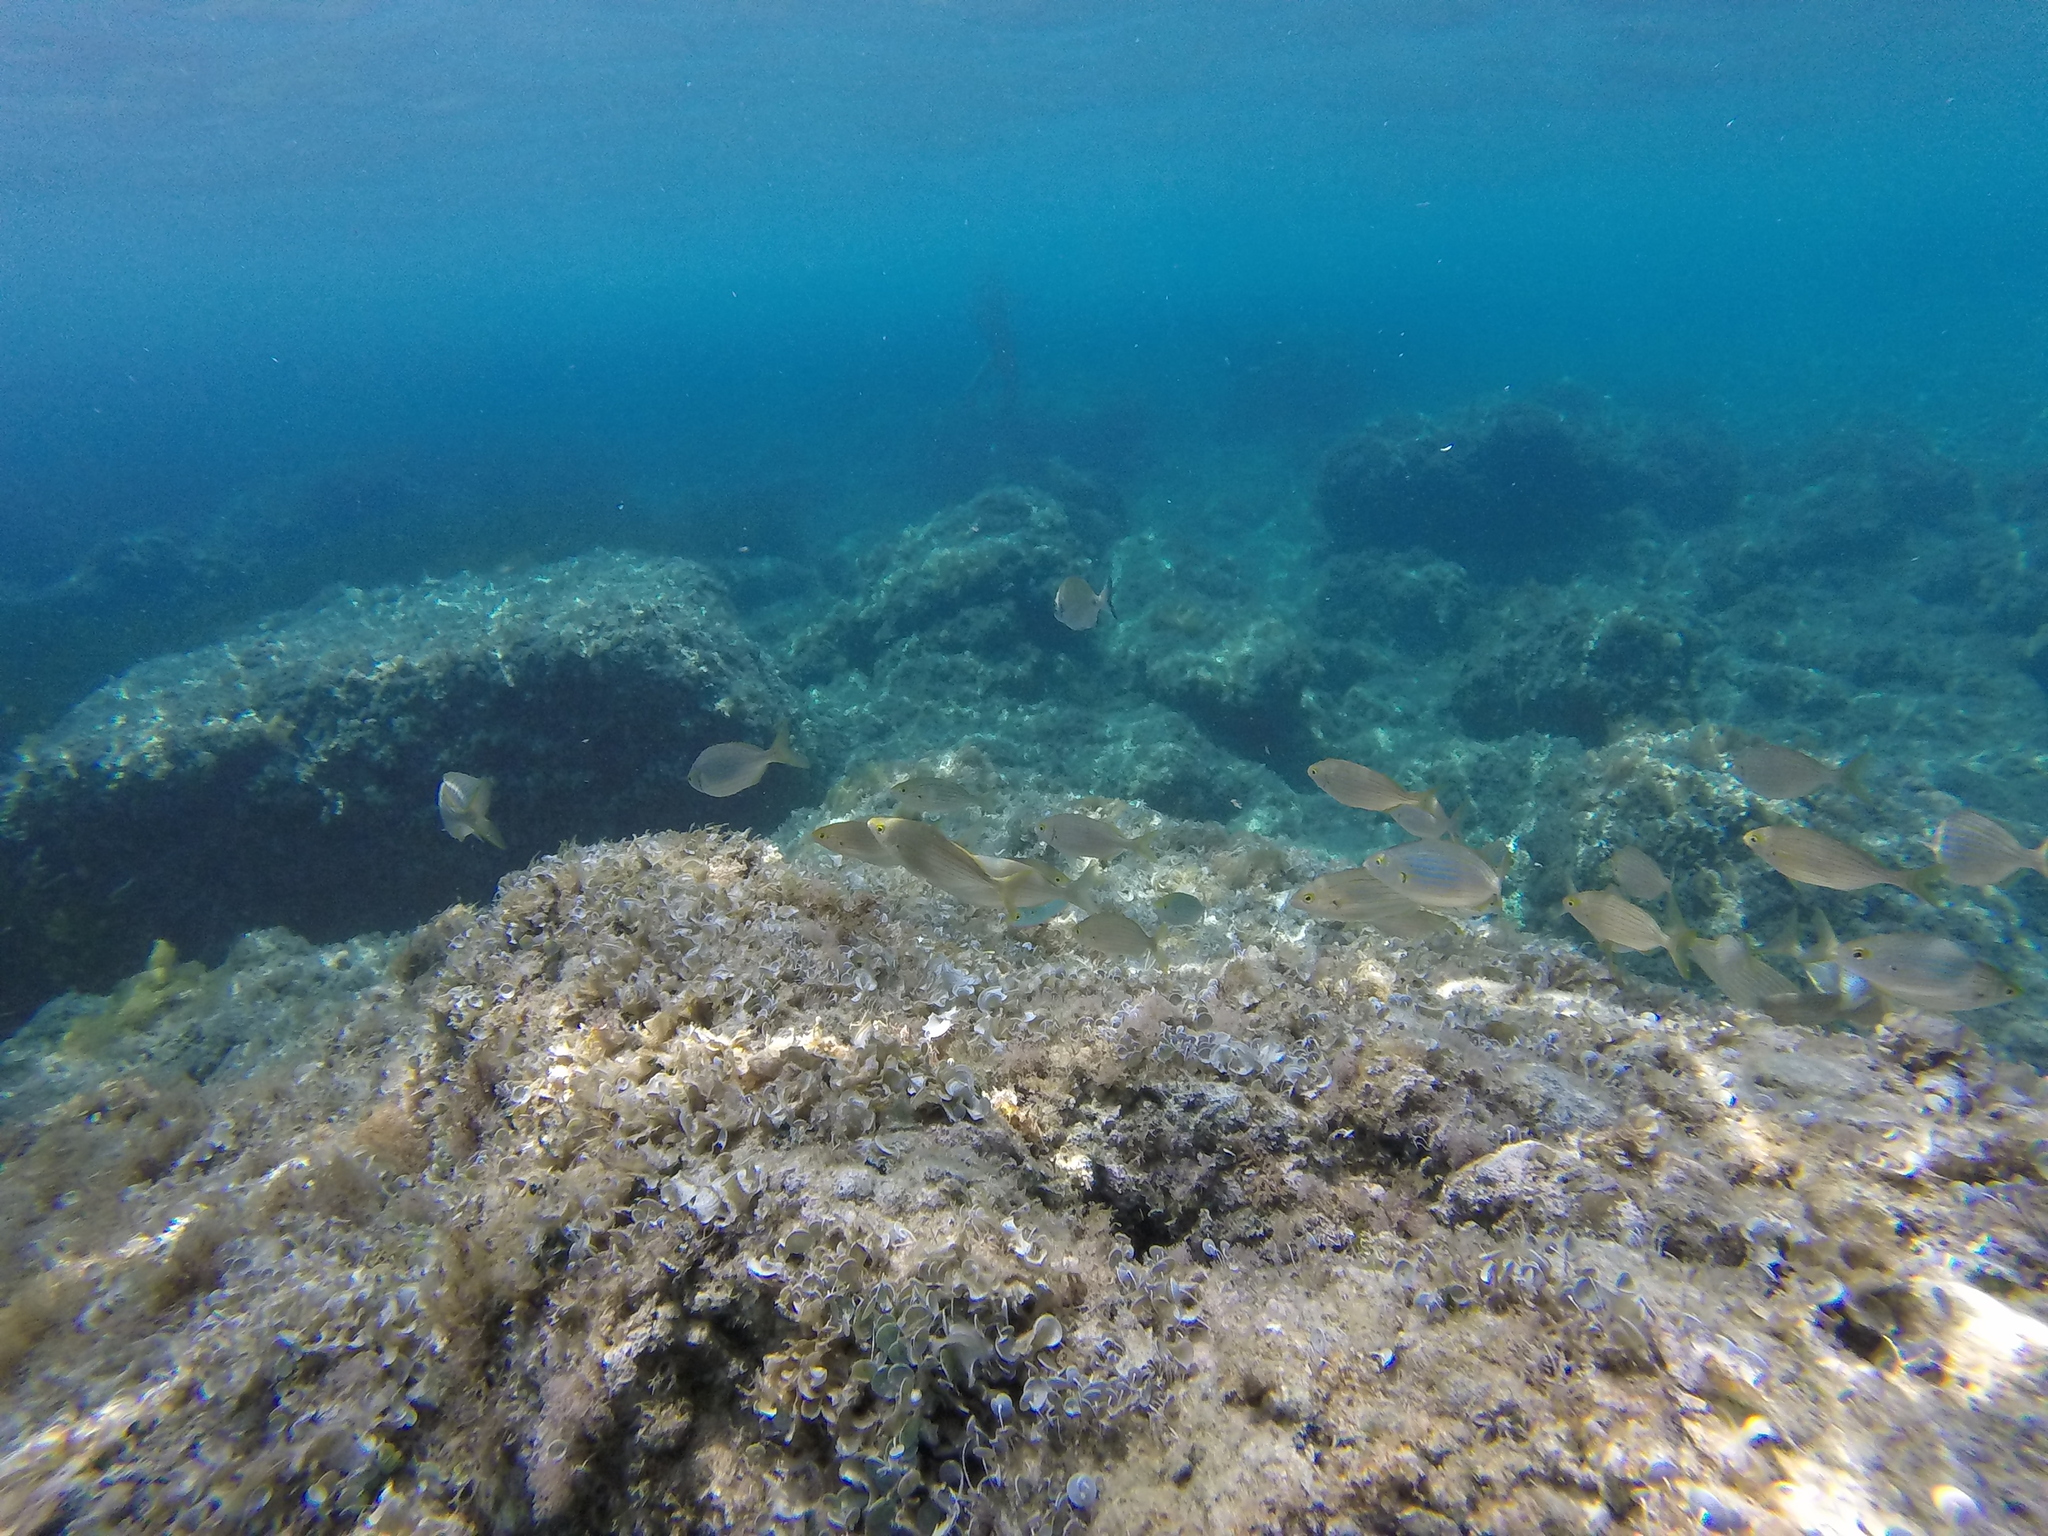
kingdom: Animalia
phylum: Chordata
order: Perciformes
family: Sparidae
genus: Sarpa
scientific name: Sarpa salpa
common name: Salema
